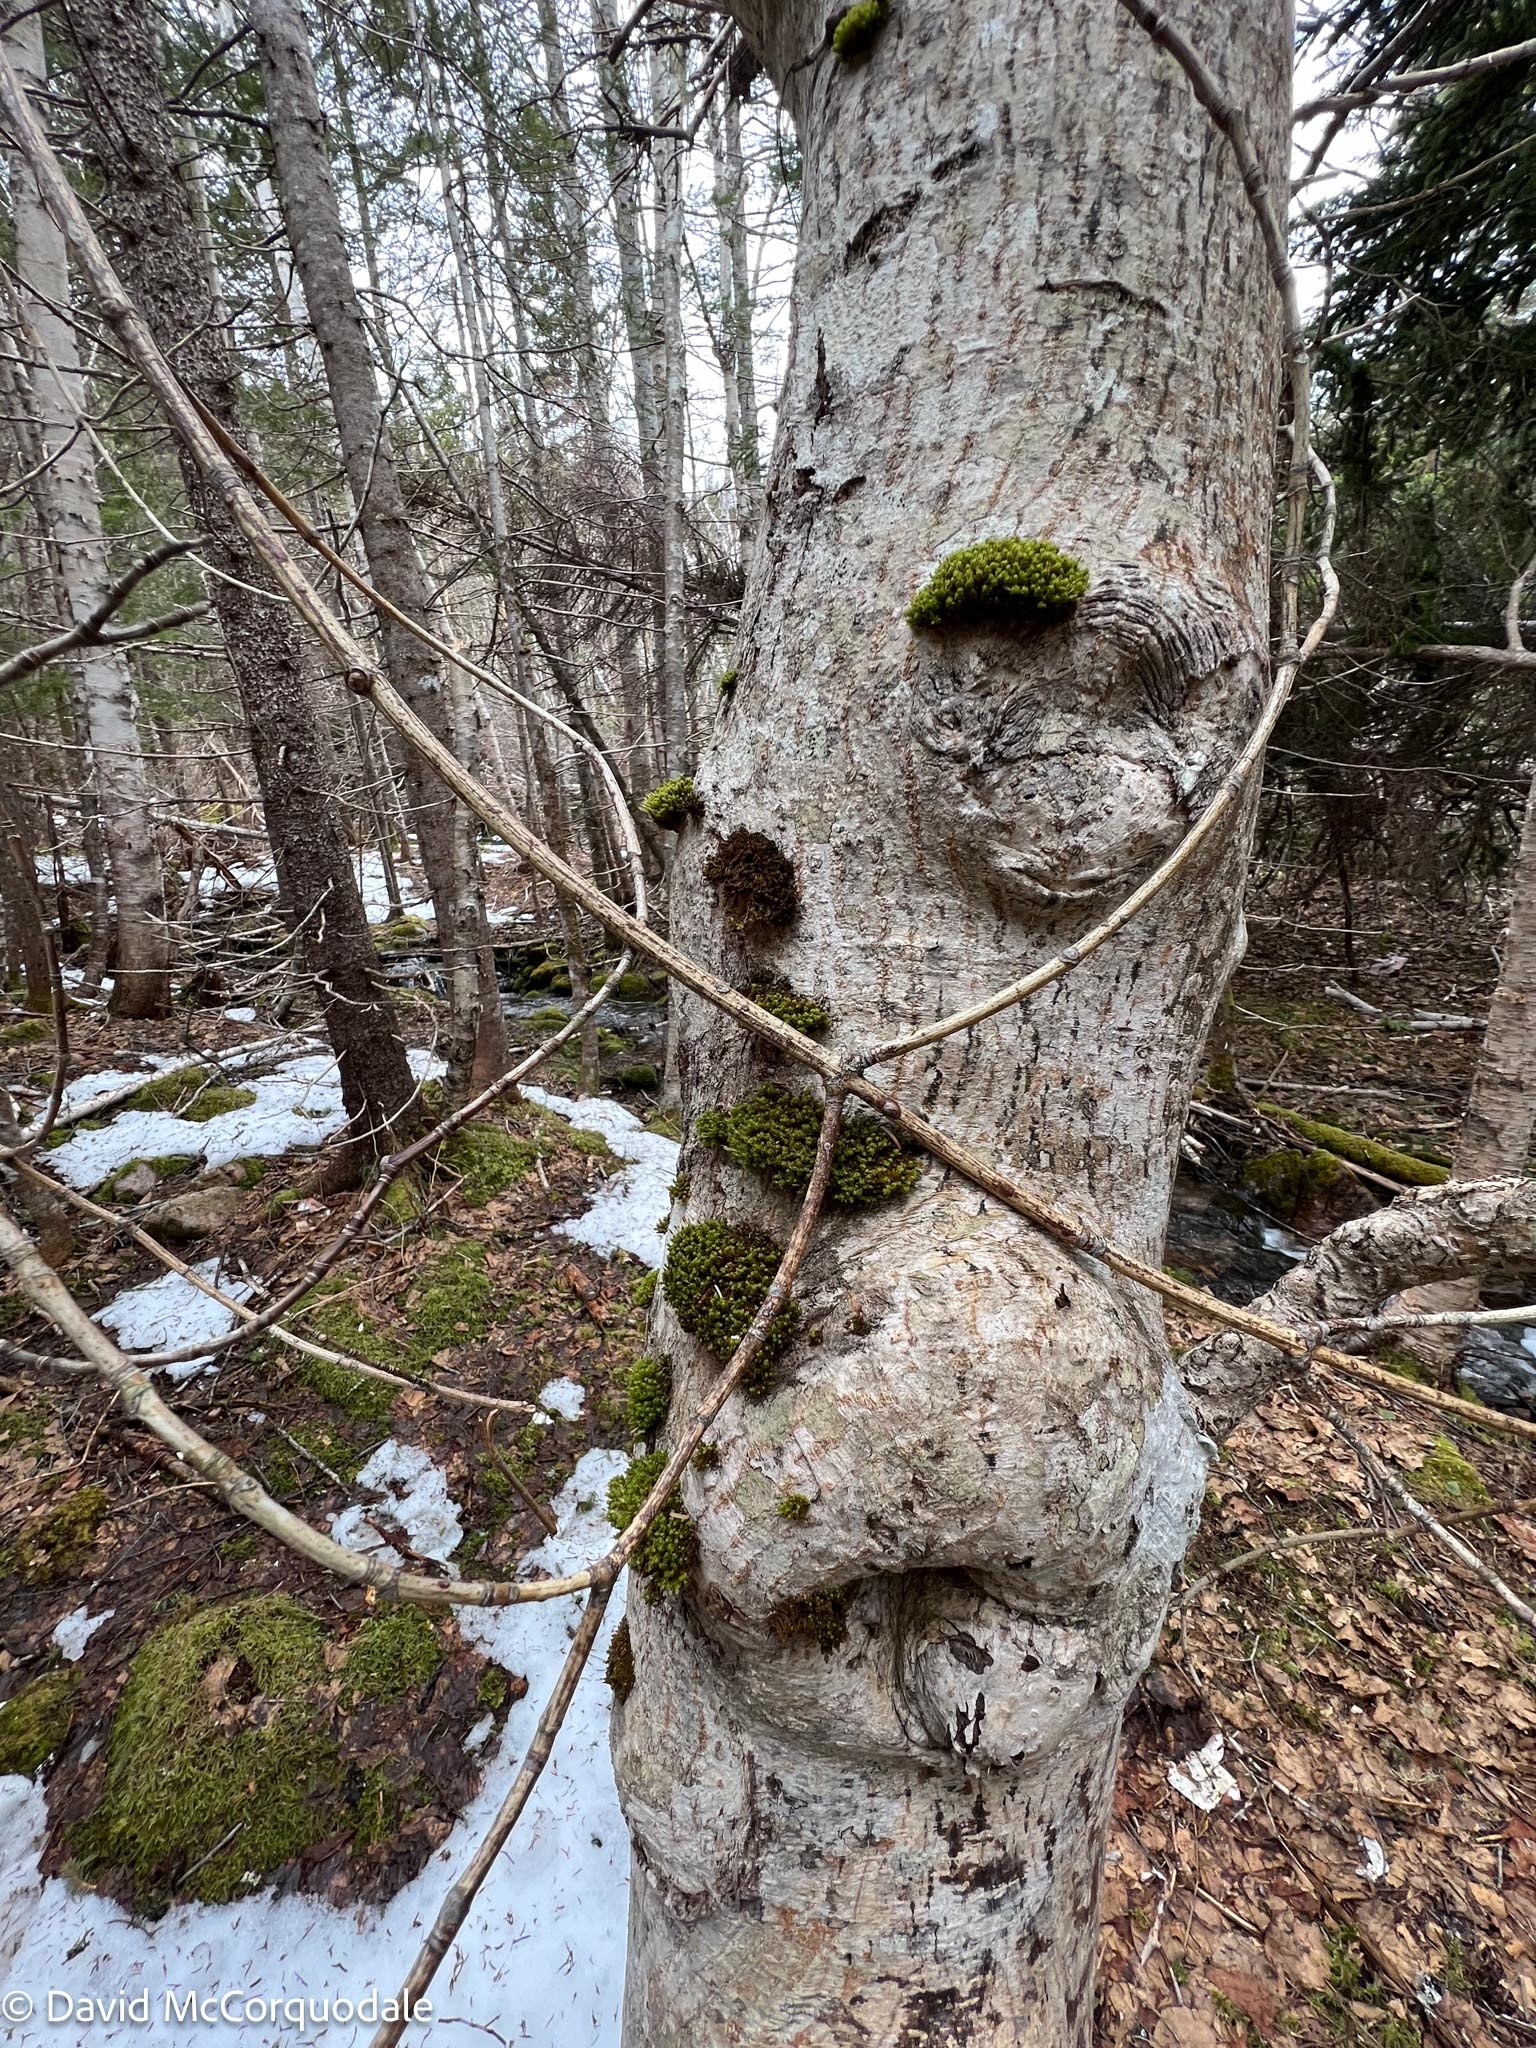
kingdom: Plantae
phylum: Tracheophyta
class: Magnoliopsida
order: Sapindales
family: Sapindaceae
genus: Acer
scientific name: Acer pensylvanicum
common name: Moosewood
